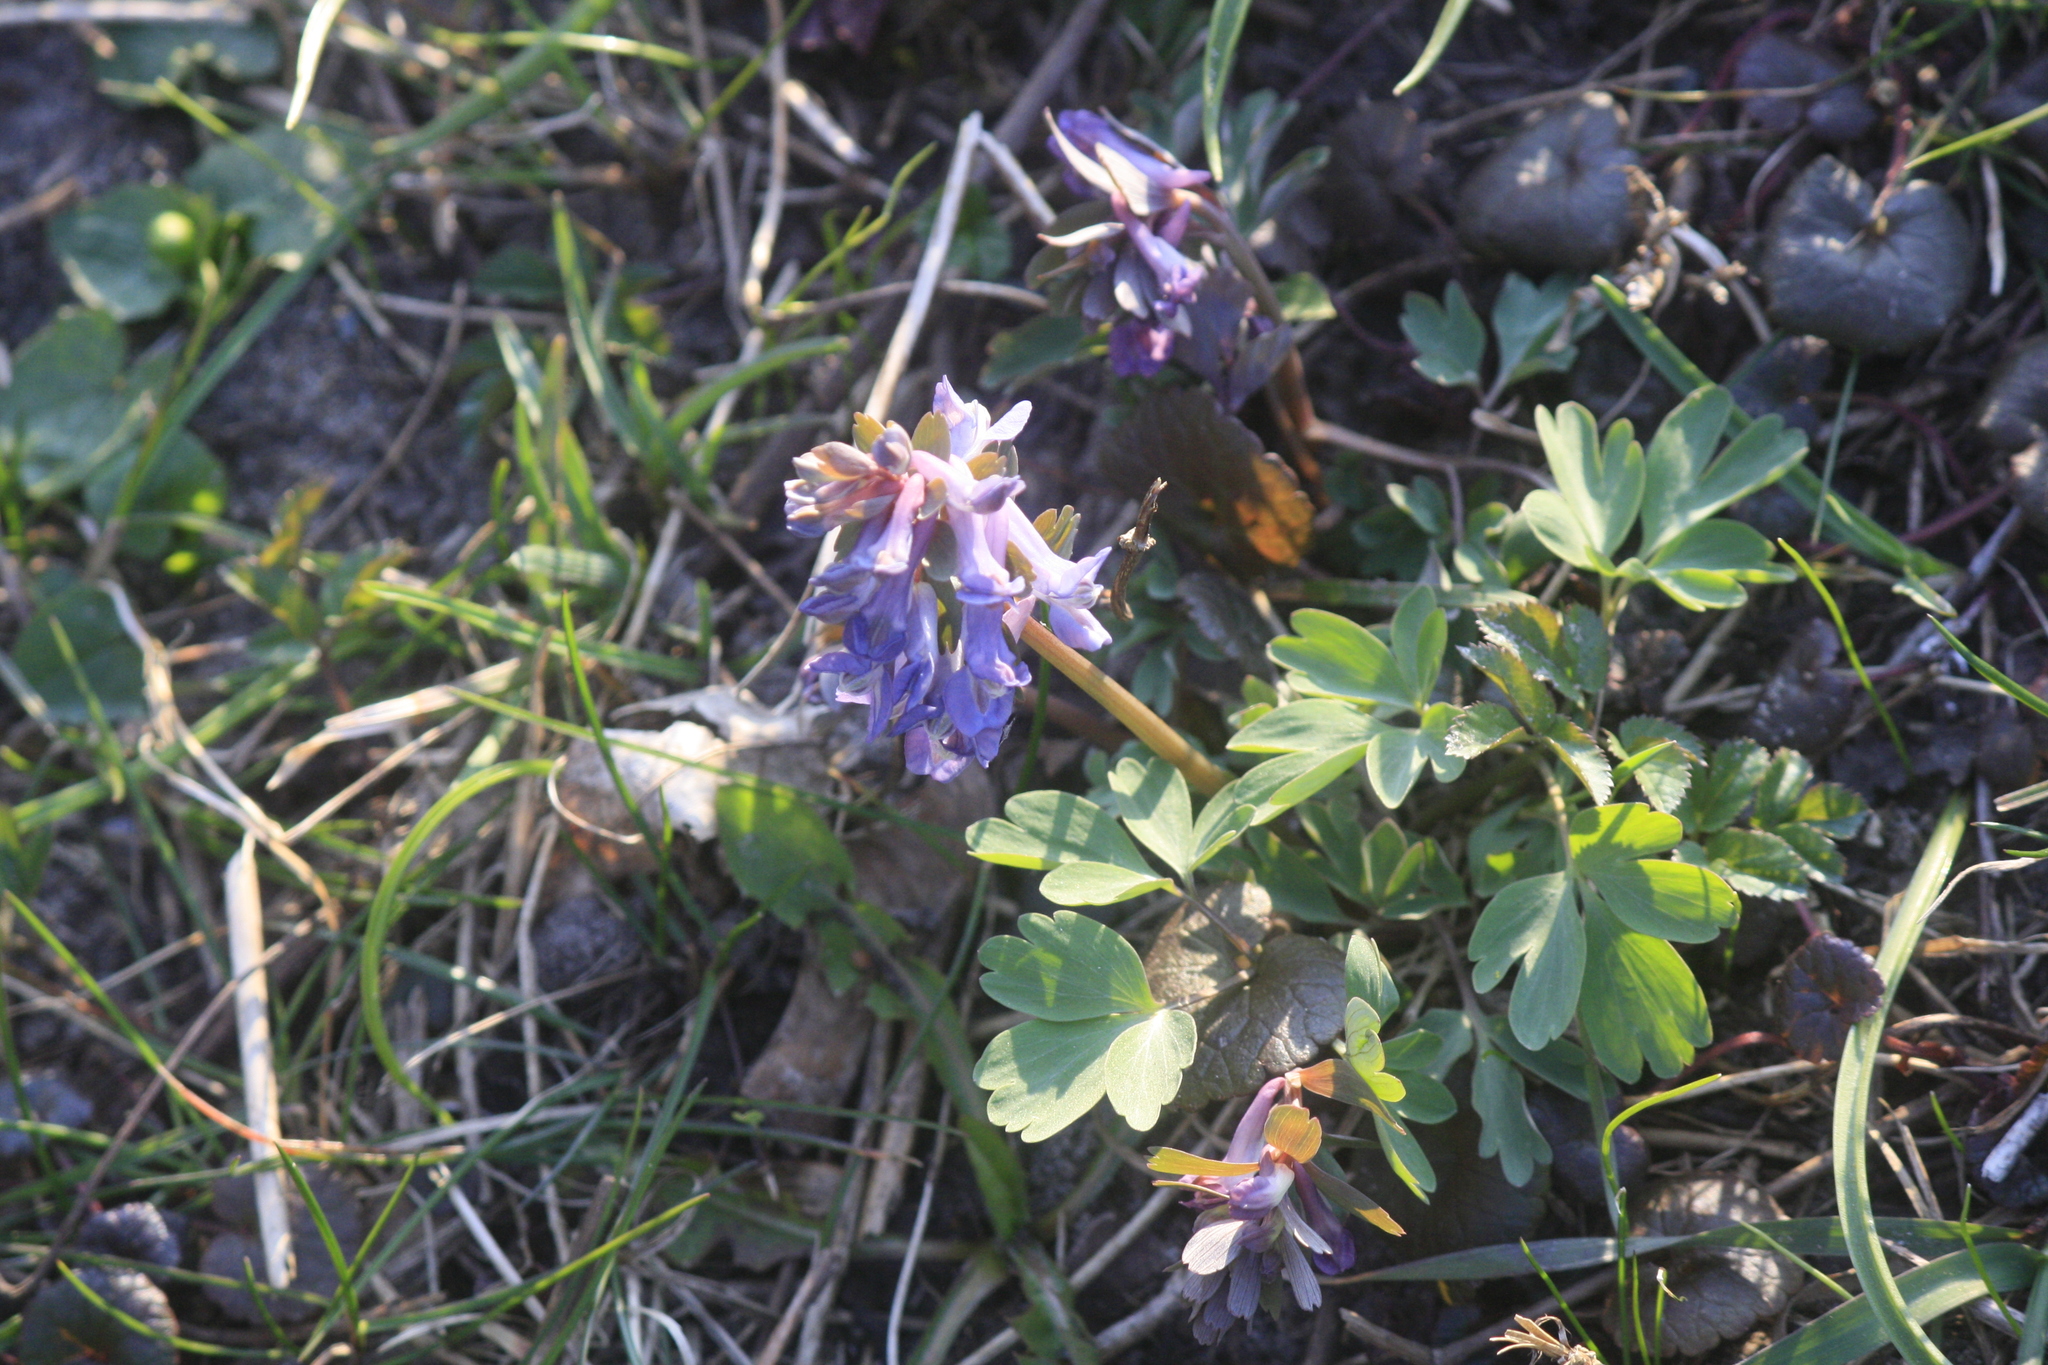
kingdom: Plantae
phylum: Tracheophyta
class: Magnoliopsida
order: Ranunculales
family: Papaveraceae
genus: Corydalis
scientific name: Corydalis solida
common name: Bird-in-a-bush
